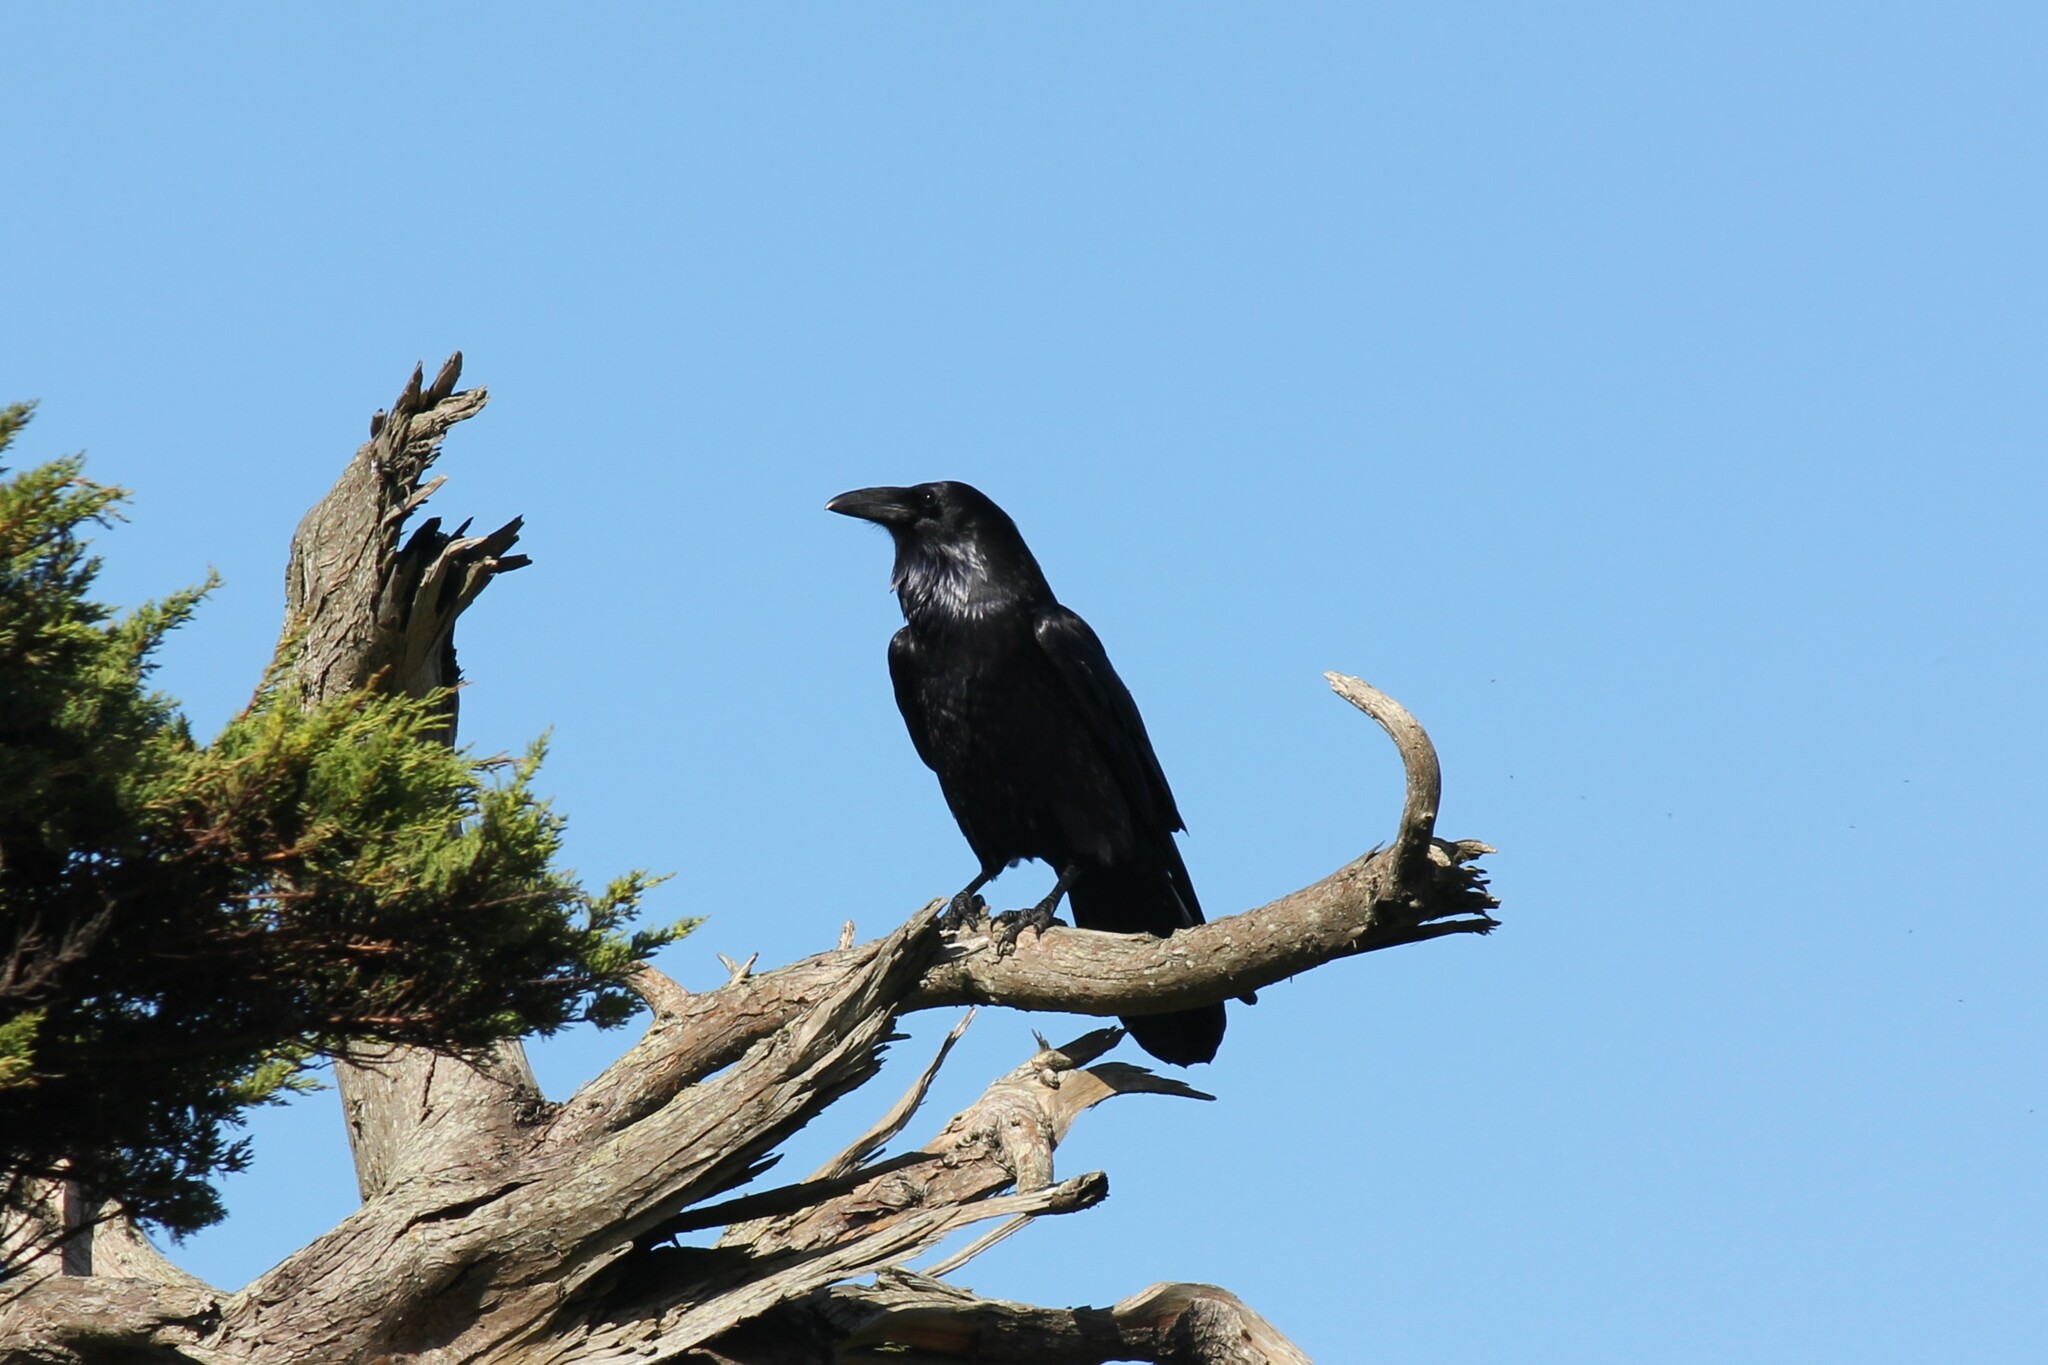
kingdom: Animalia
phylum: Chordata
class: Aves
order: Passeriformes
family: Corvidae
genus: Corvus
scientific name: Corvus corax
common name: Common raven
